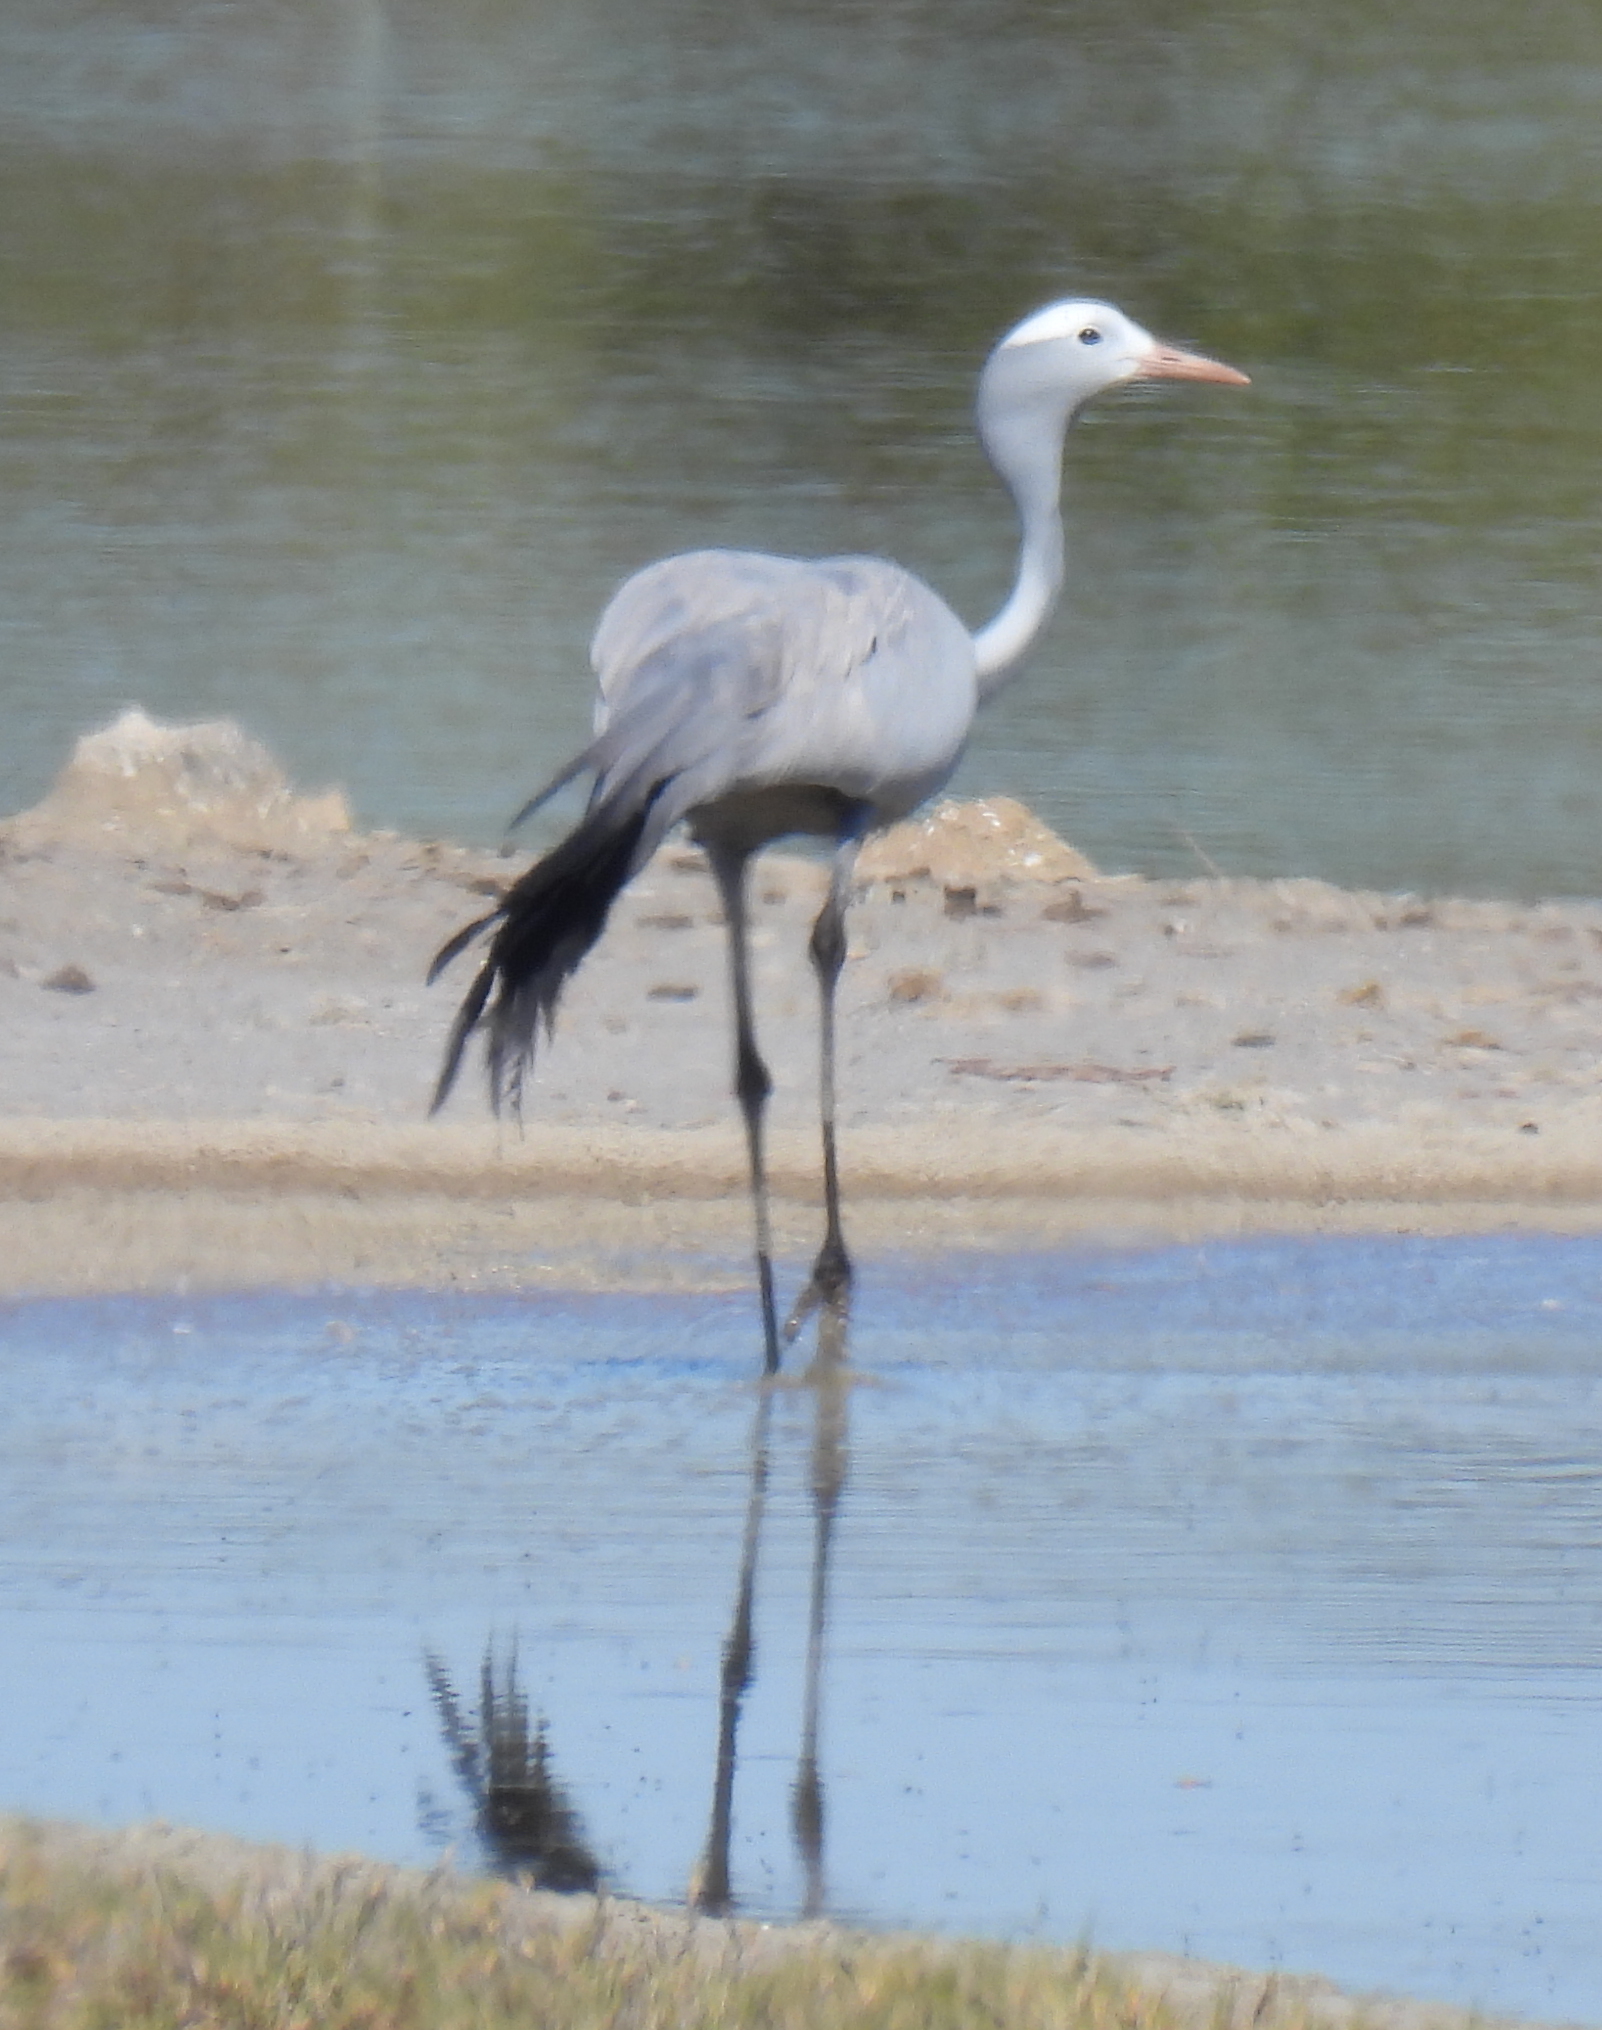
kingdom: Animalia
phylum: Chordata
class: Aves
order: Gruiformes
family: Gruidae
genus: Anthropoides
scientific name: Anthropoides paradiseus
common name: Blue crane
